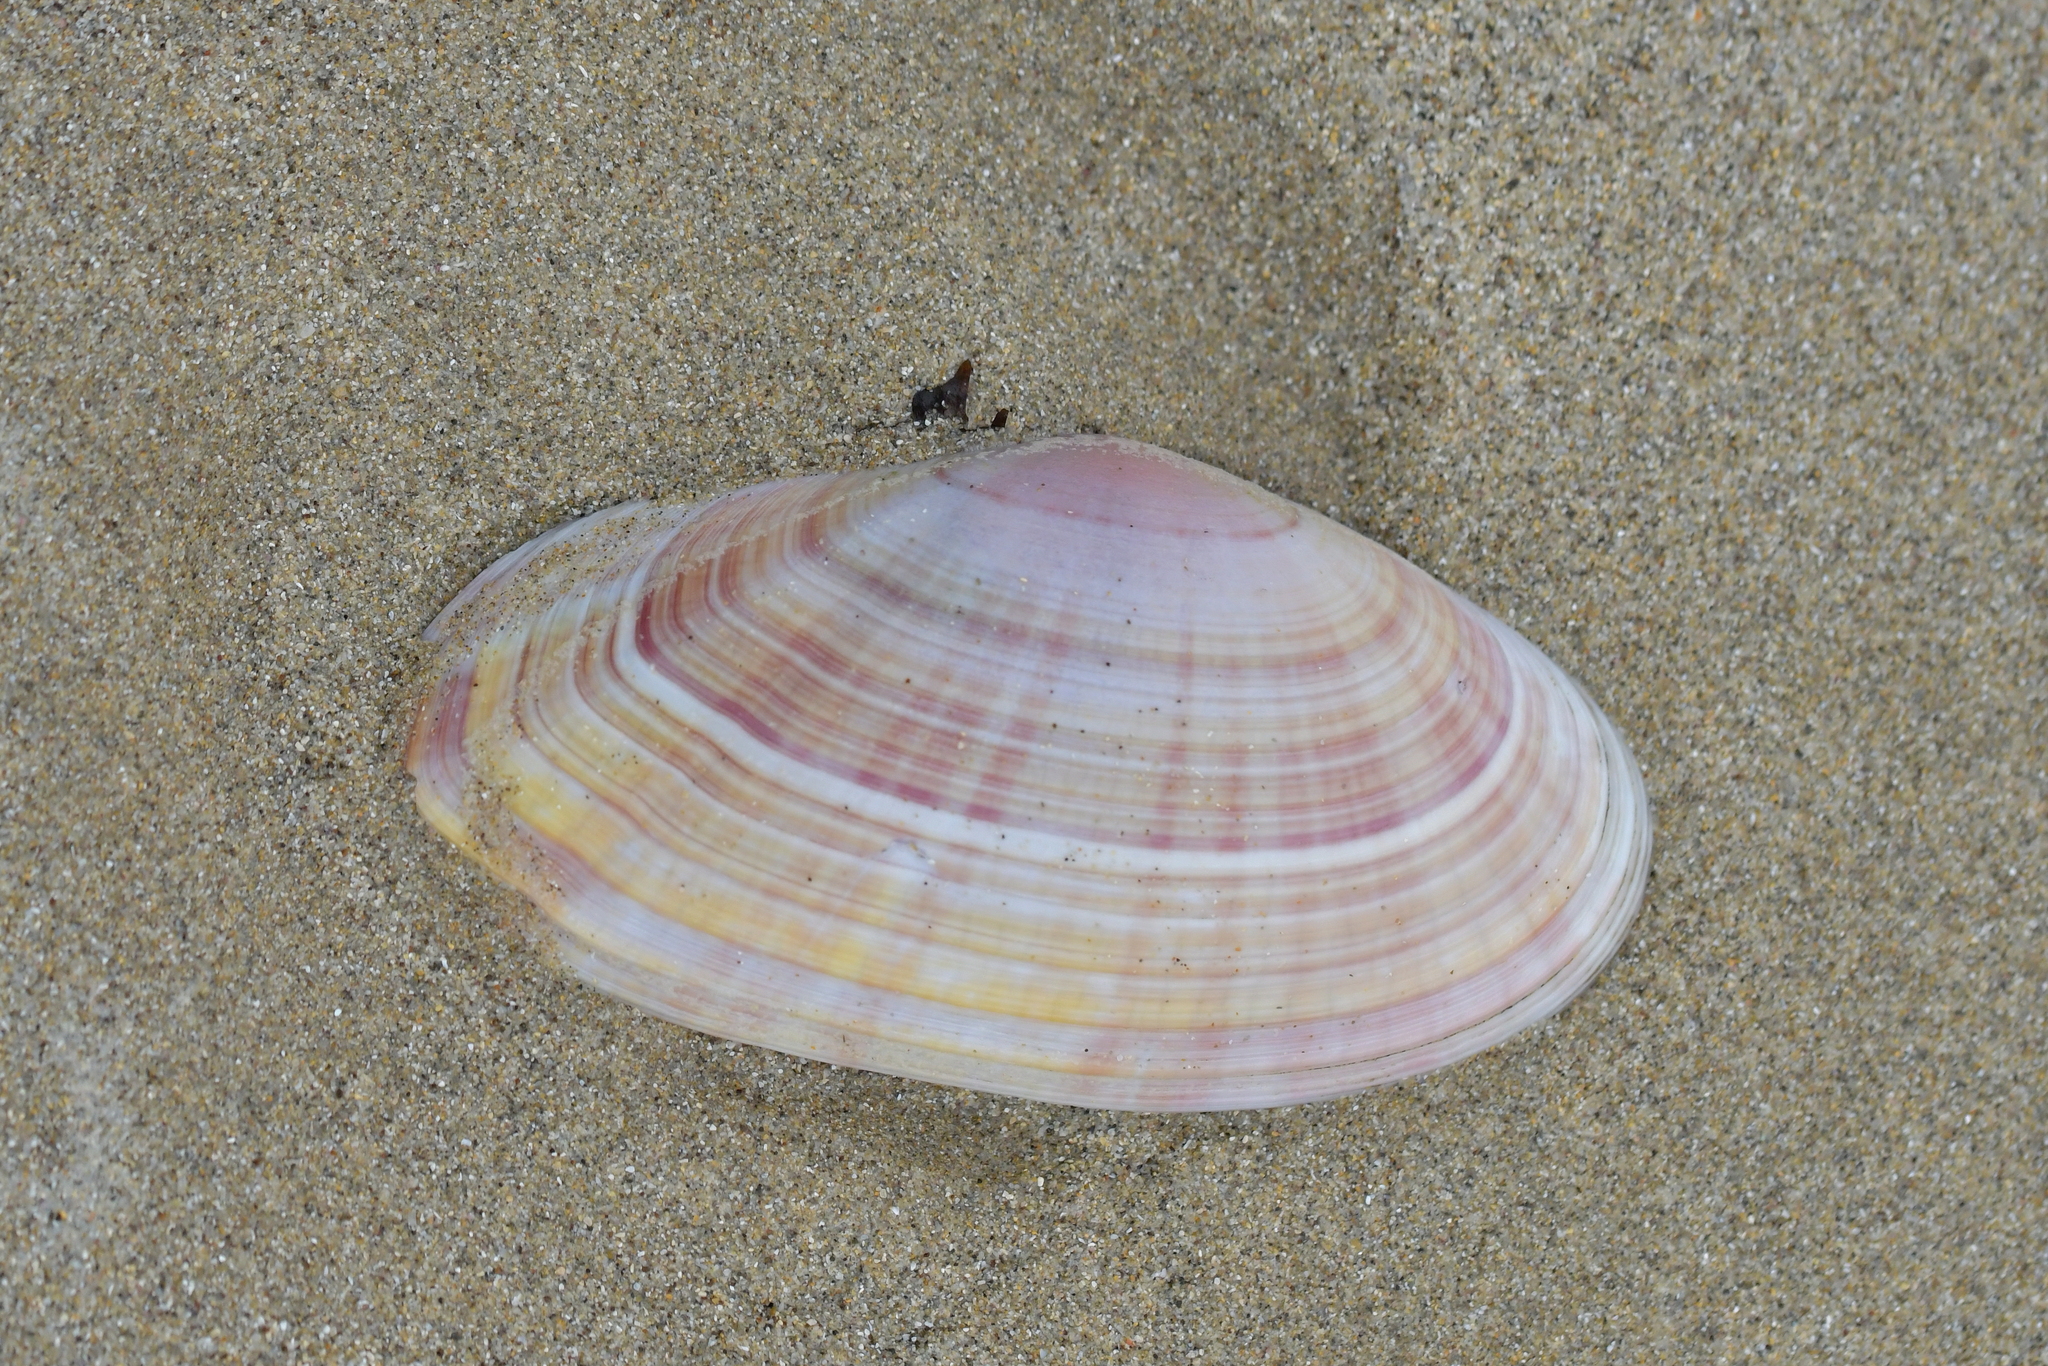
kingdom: Animalia
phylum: Mollusca
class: Bivalvia
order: Cardiida
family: Psammobiidae
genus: Gari
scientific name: Gari convexa
